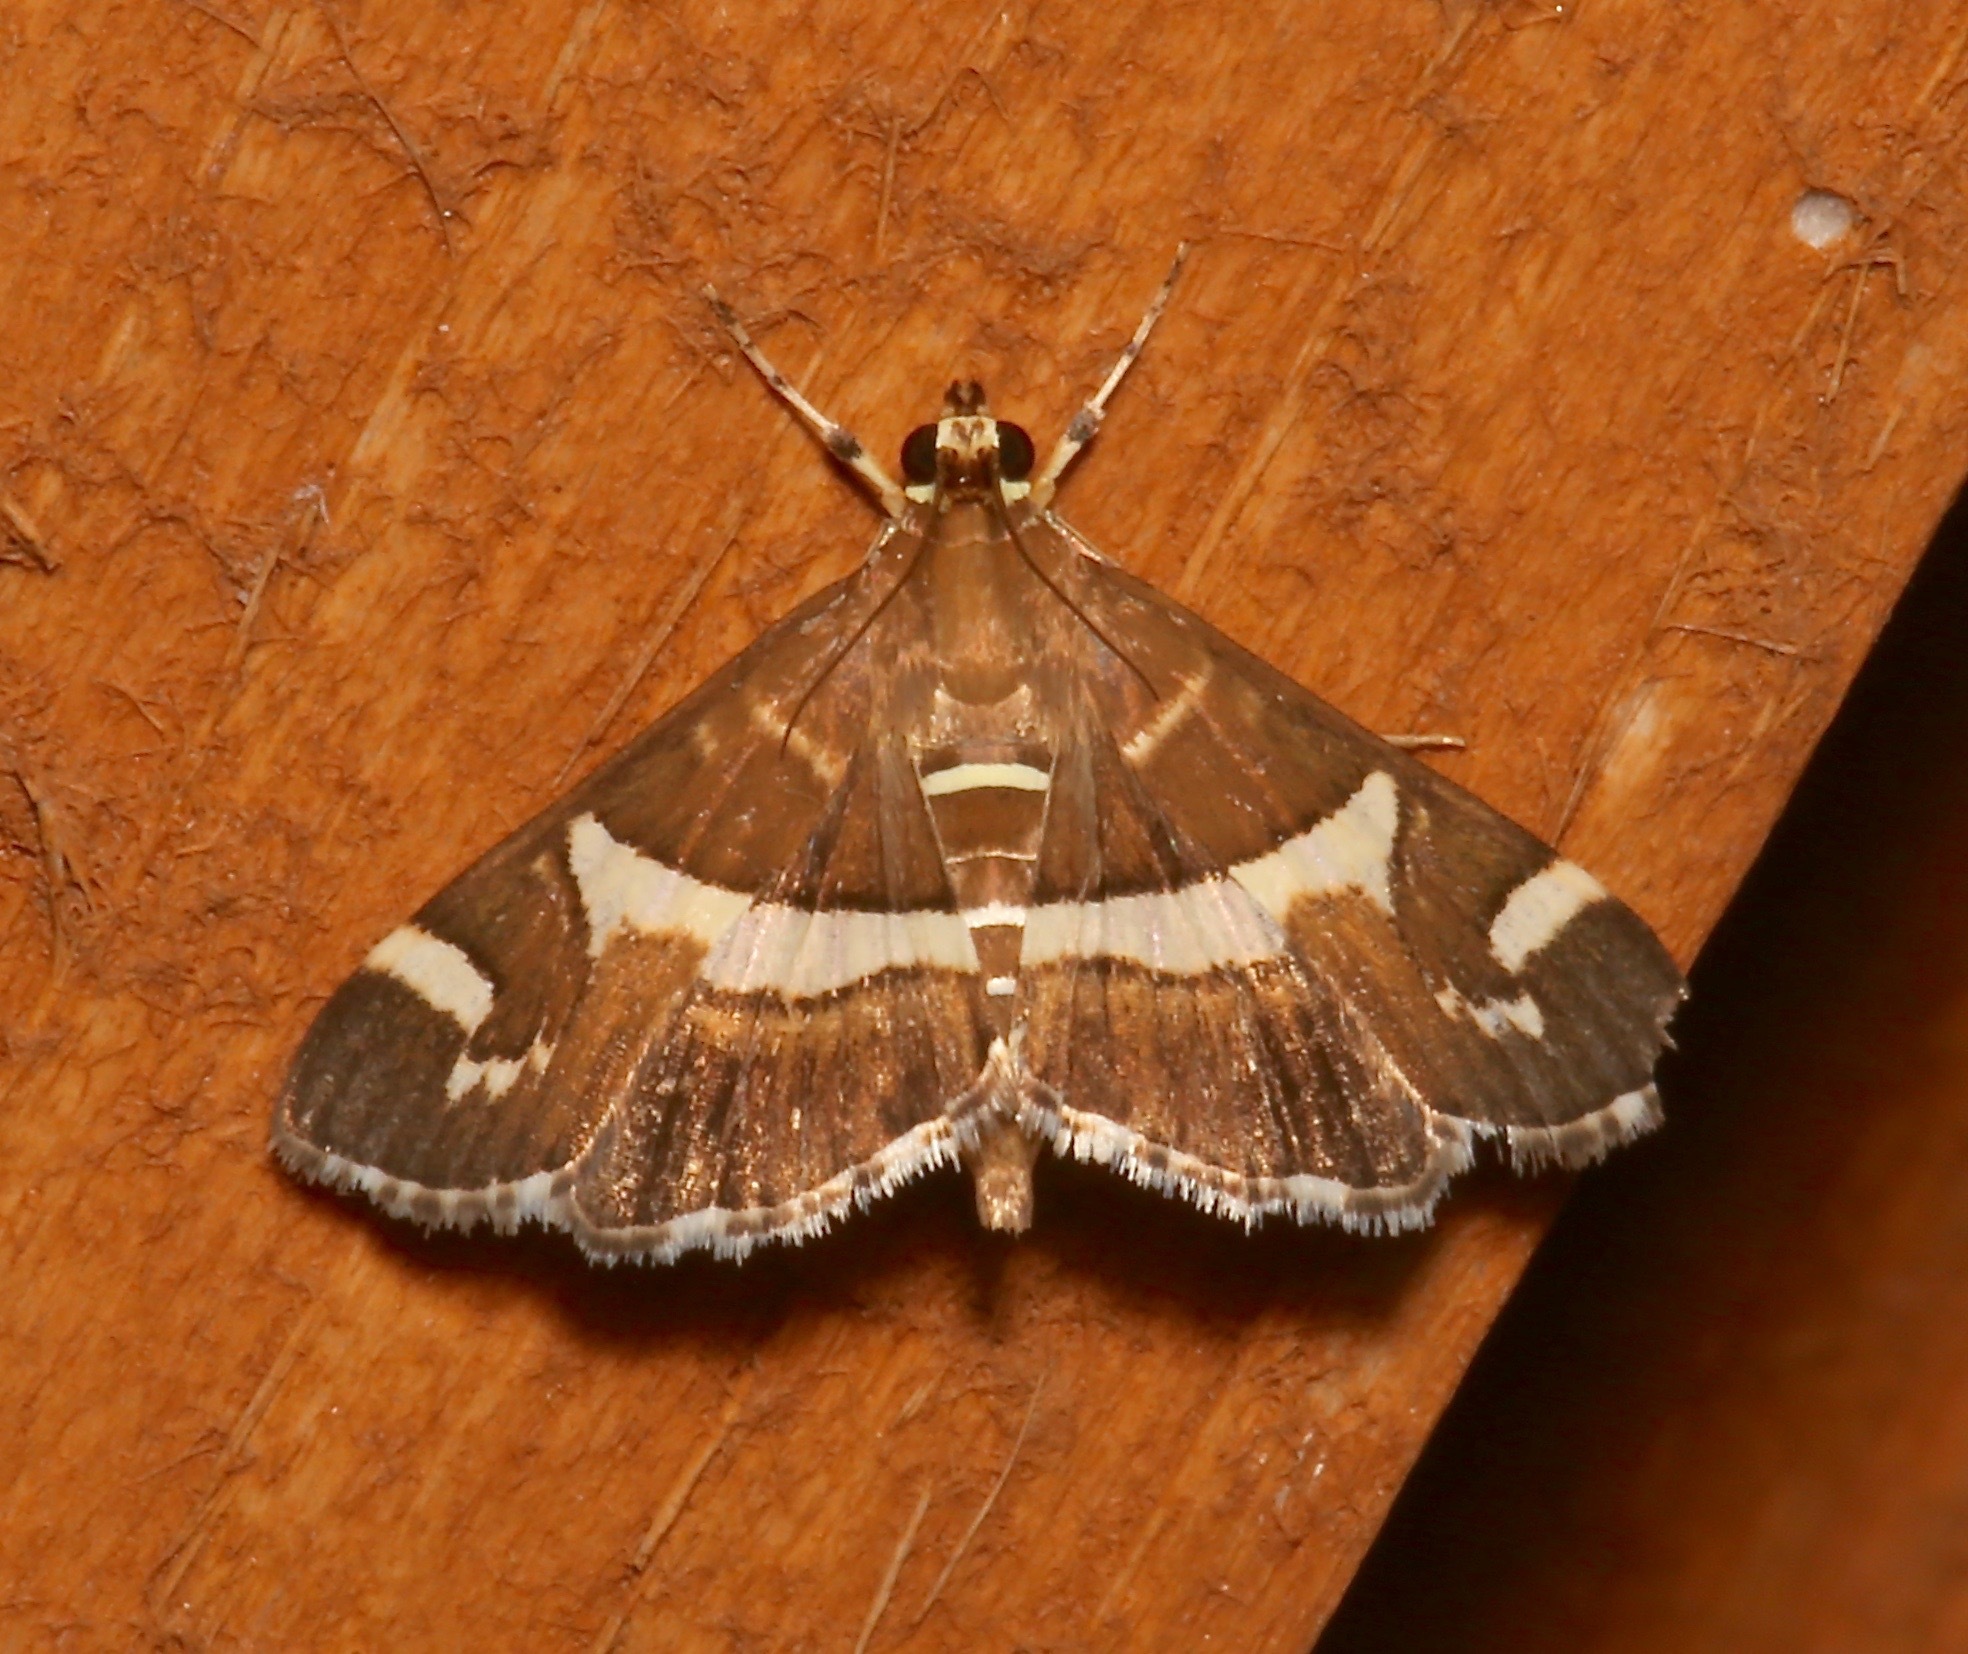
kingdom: Animalia
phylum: Arthropoda
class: Insecta
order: Lepidoptera
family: Crambidae
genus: Spoladea
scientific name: Spoladea recurvalis
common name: Beet webworm moth
